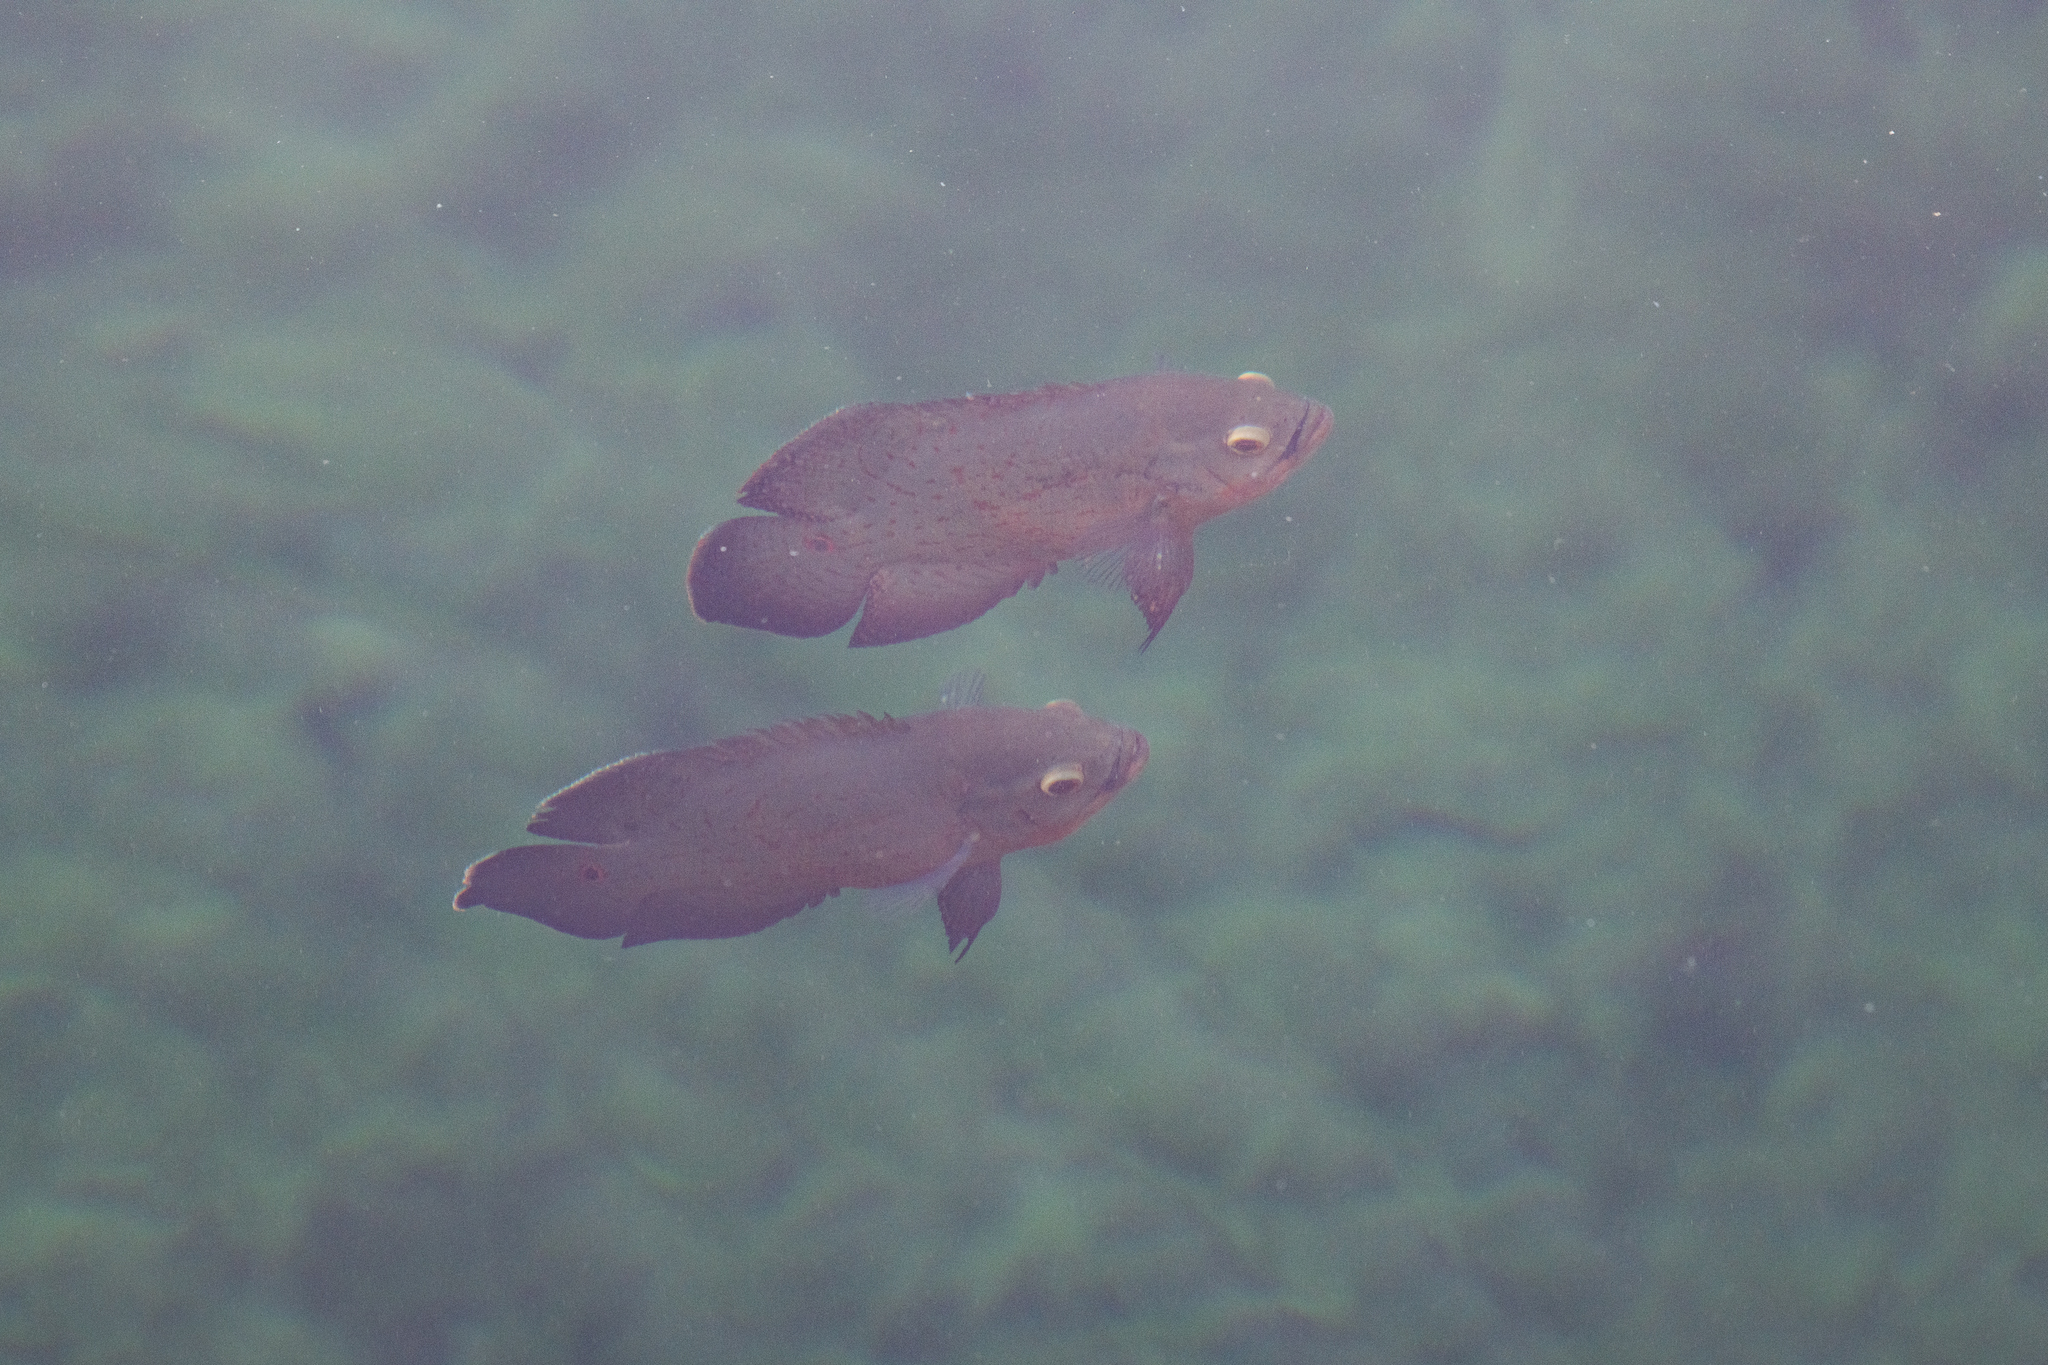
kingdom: Animalia
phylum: Chordata
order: Perciformes
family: Cichlidae
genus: Astronotus
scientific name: Astronotus ocellatus
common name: Oscar
